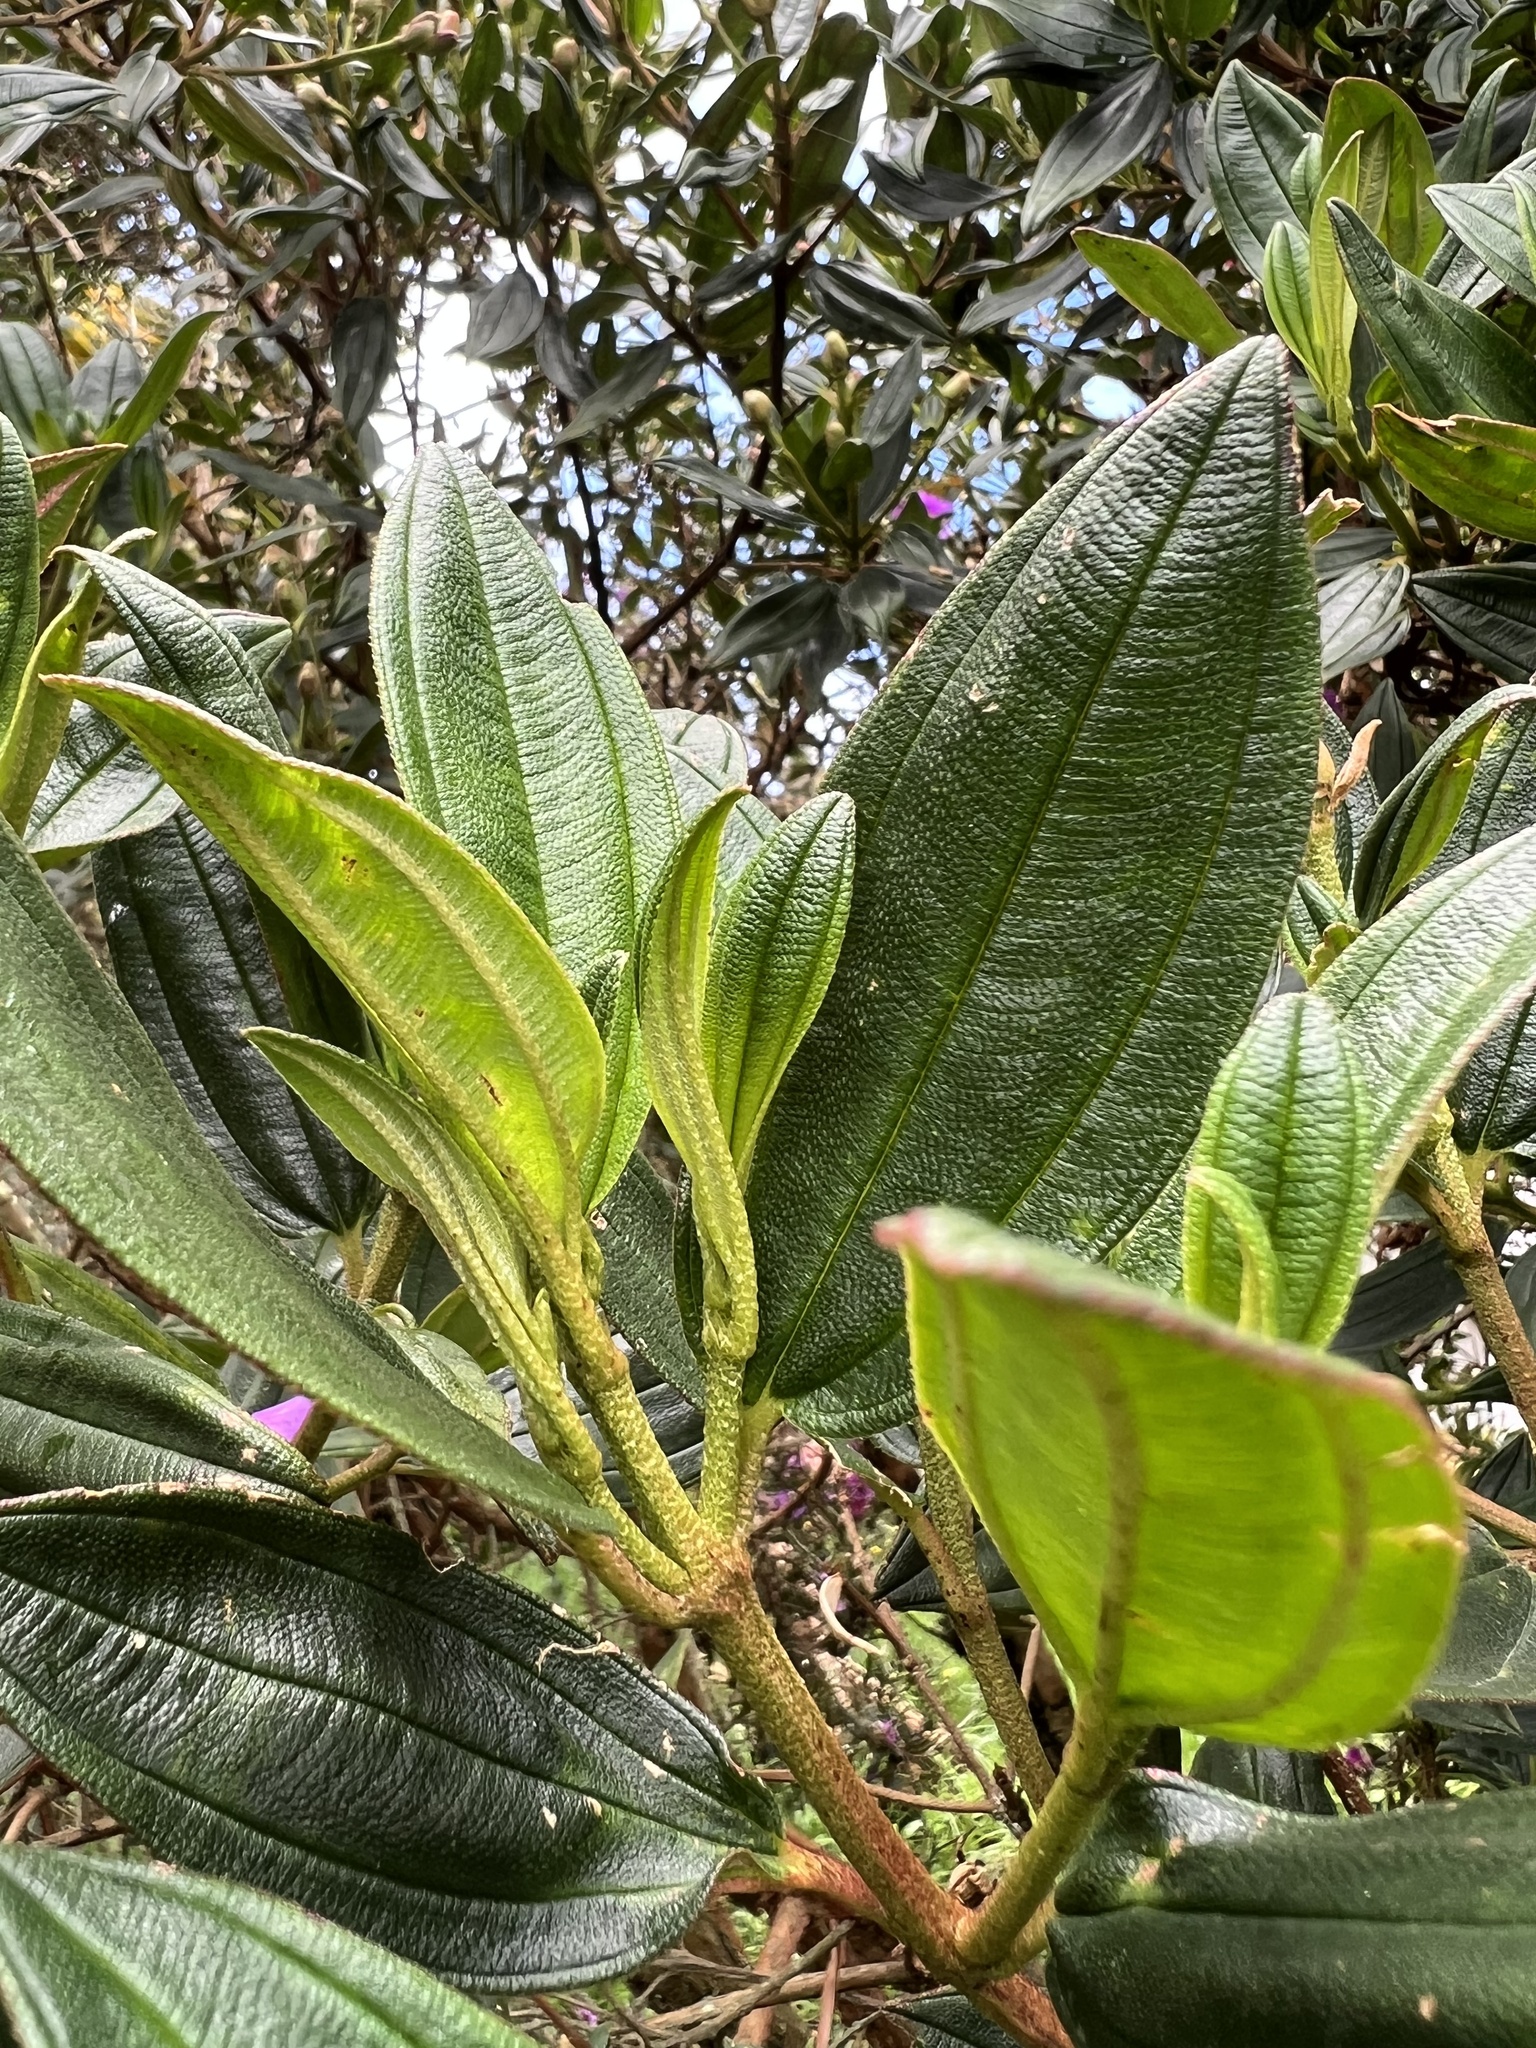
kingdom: Plantae
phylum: Tracheophyta
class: Magnoliopsida
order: Myrtales
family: Melastomataceae
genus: Andesanthus
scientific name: Andesanthus lepidotus
